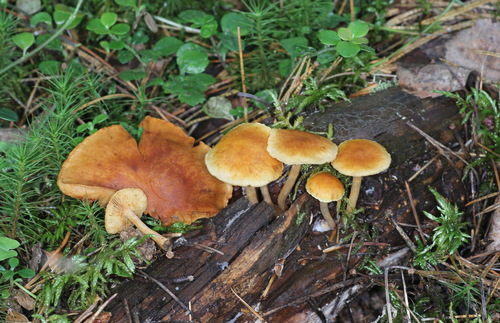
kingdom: Fungi
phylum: Basidiomycota
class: Agaricomycetes
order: Agaricales
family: Hymenogastraceae
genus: Gymnopilus
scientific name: Gymnopilus penetrans
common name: Common rustgill
